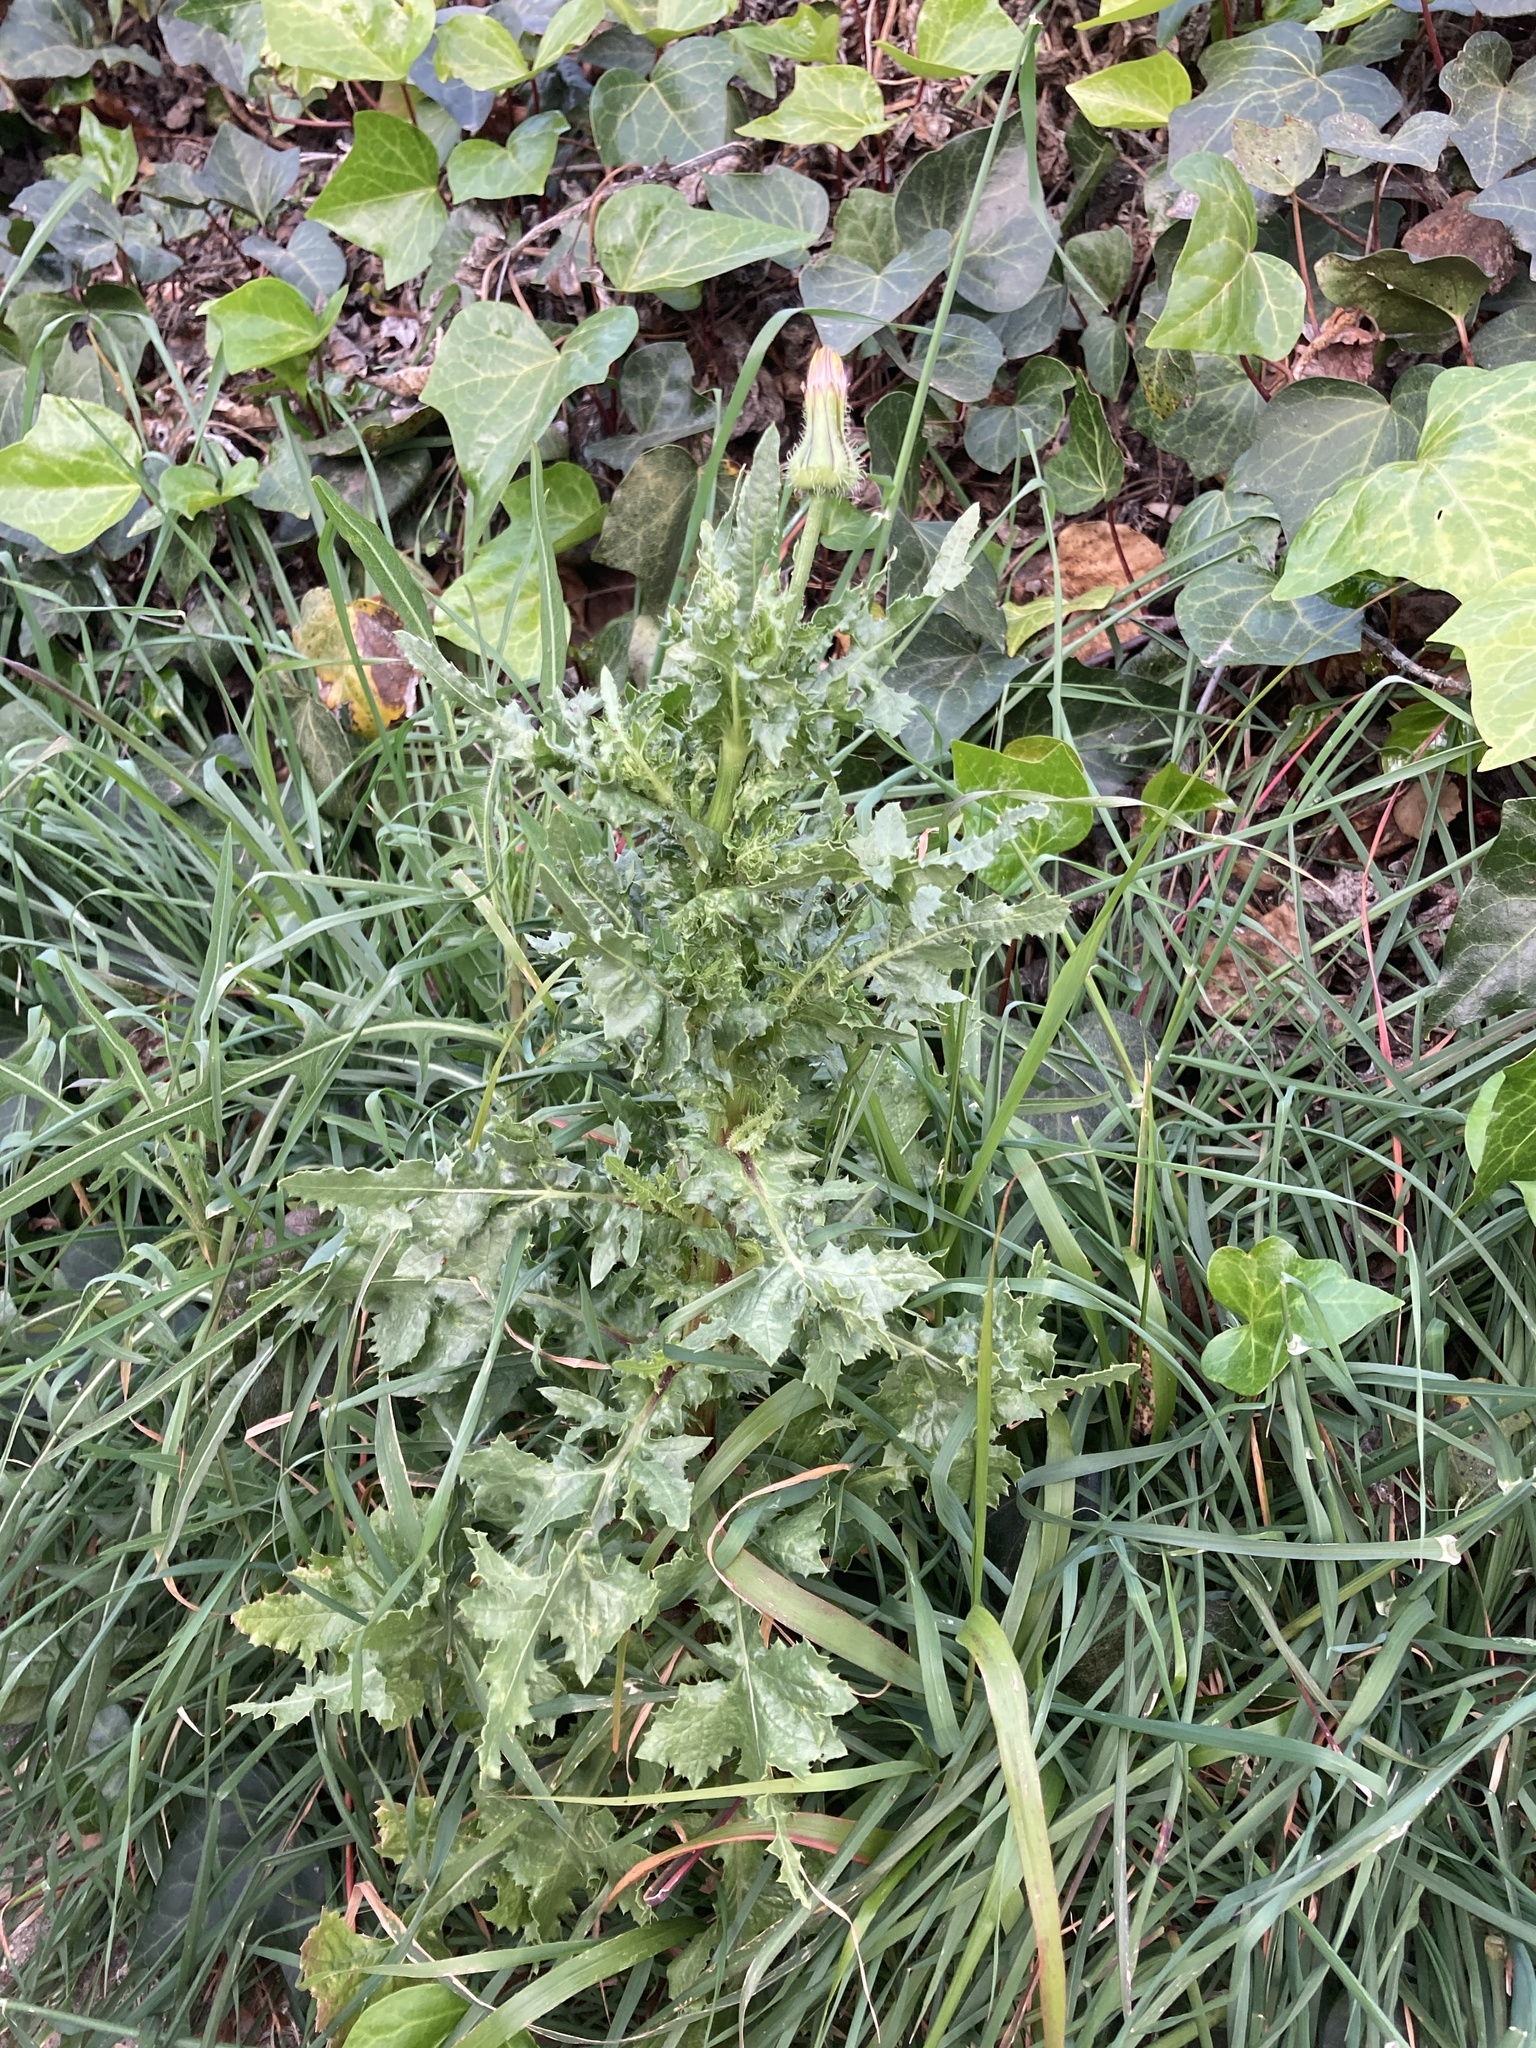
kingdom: Plantae
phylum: Tracheophyta
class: Magnoliopsida
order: Asterales
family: Asteraceae
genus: Urospermum
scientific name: Urospermum picroides
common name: False hawkbit
